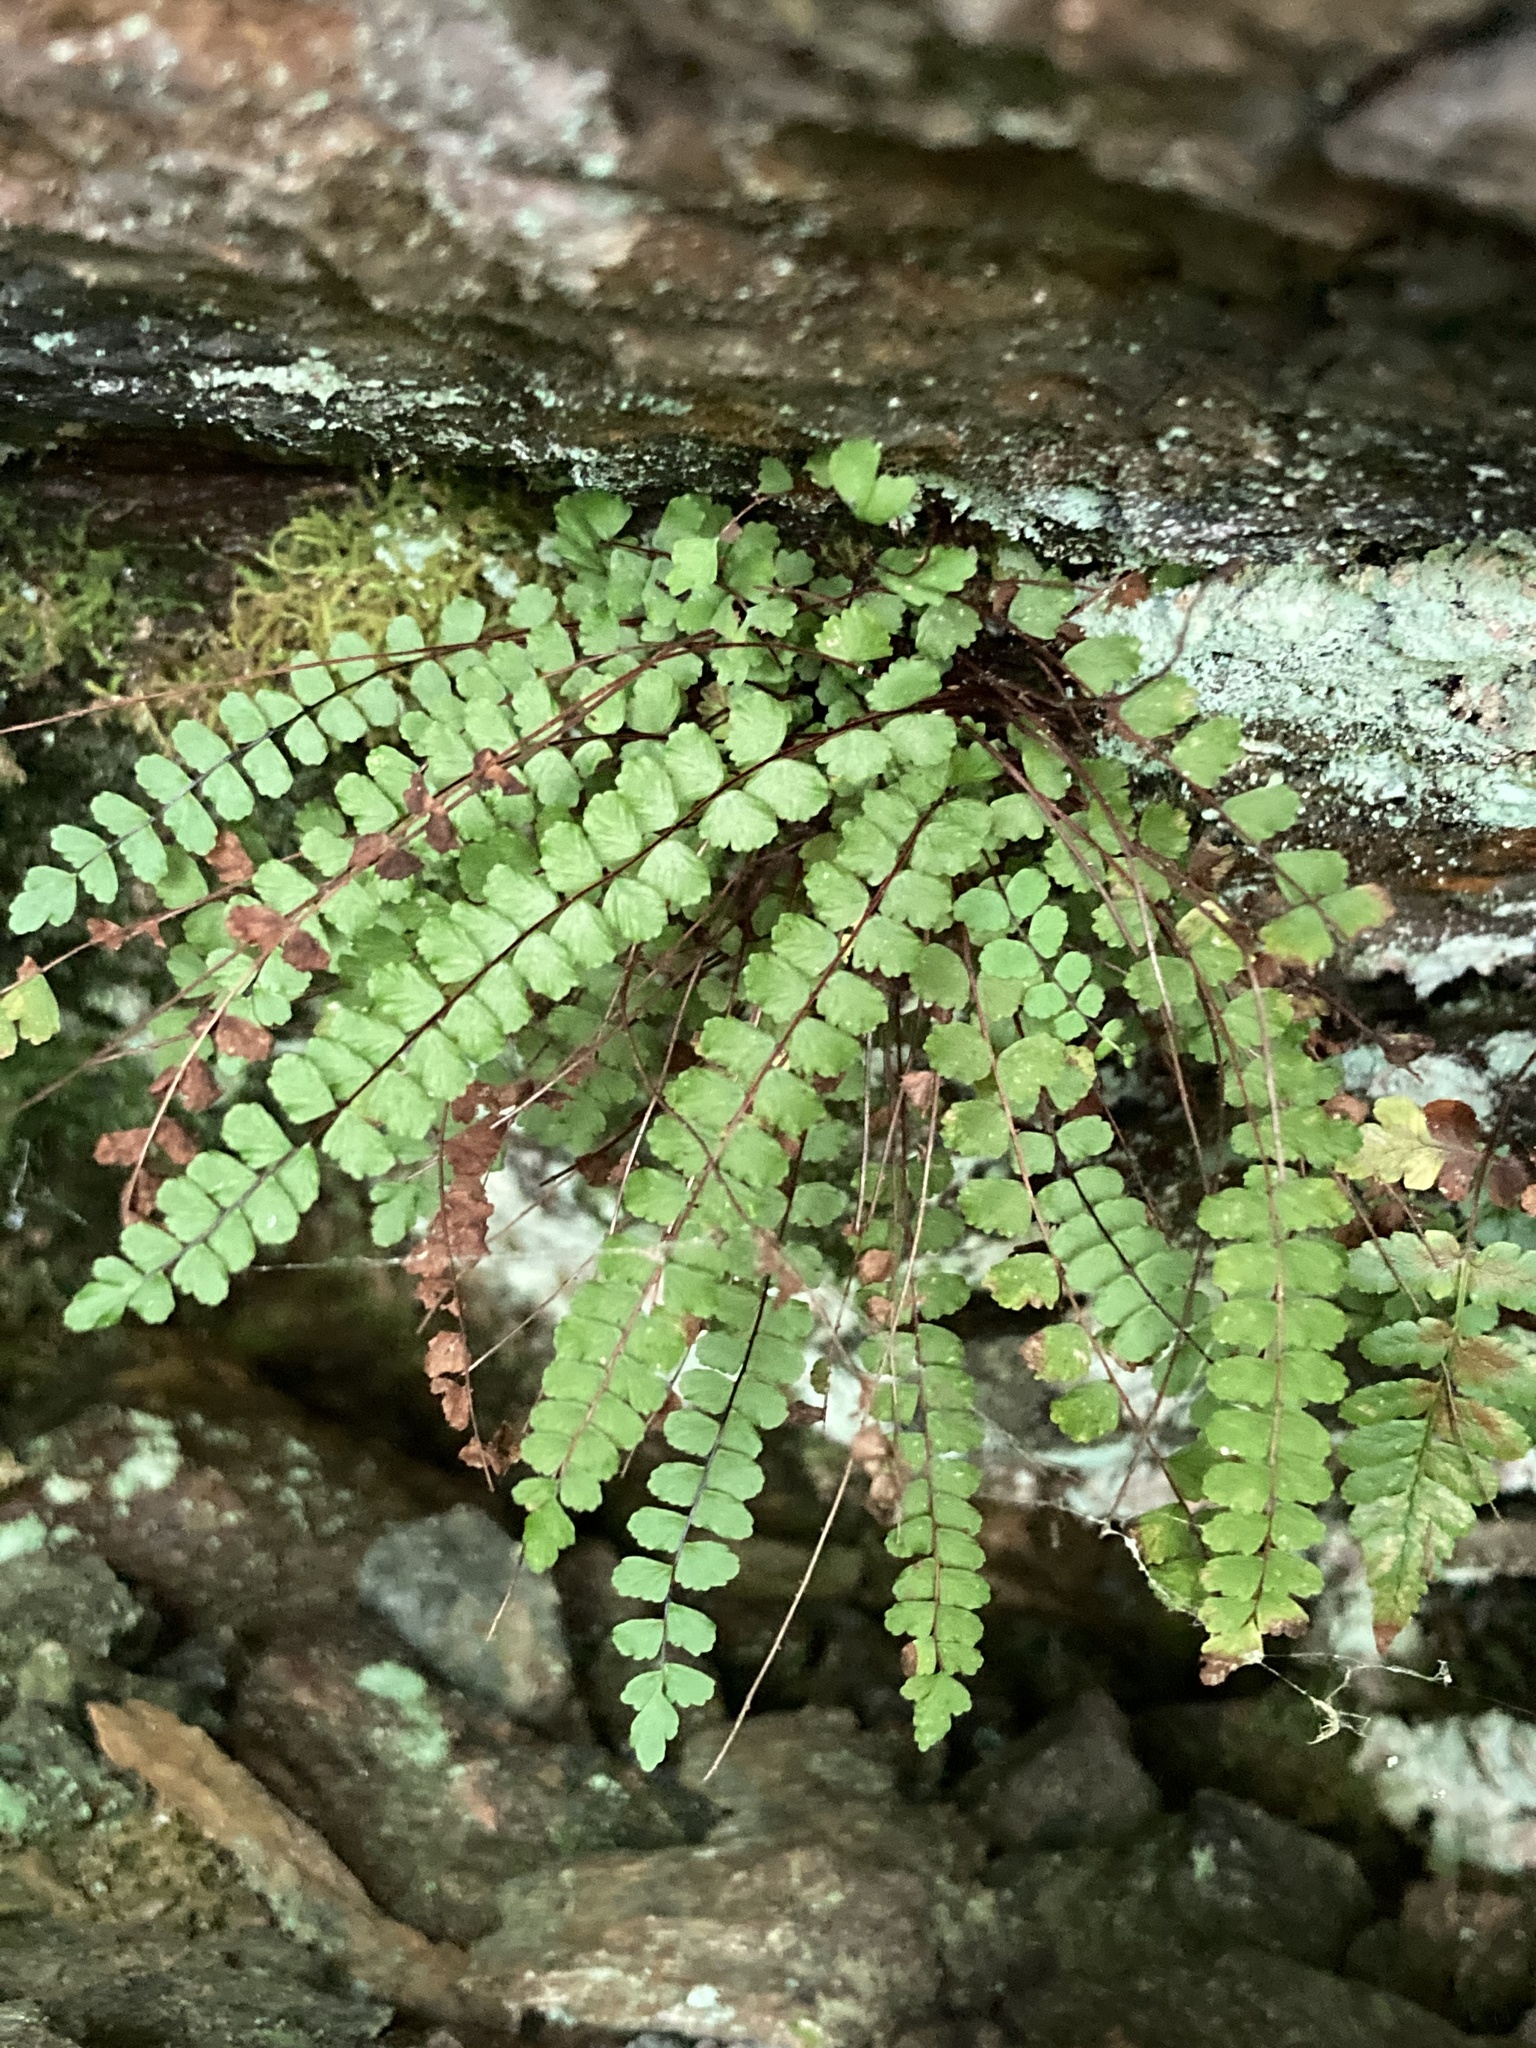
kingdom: Plantae
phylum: Tracheophyta
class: Polypodiopsida
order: Polypodiales
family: Aspleniaceae
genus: Asplenium
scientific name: Asplenium trichomanes
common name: Maidenhair spleenwort
